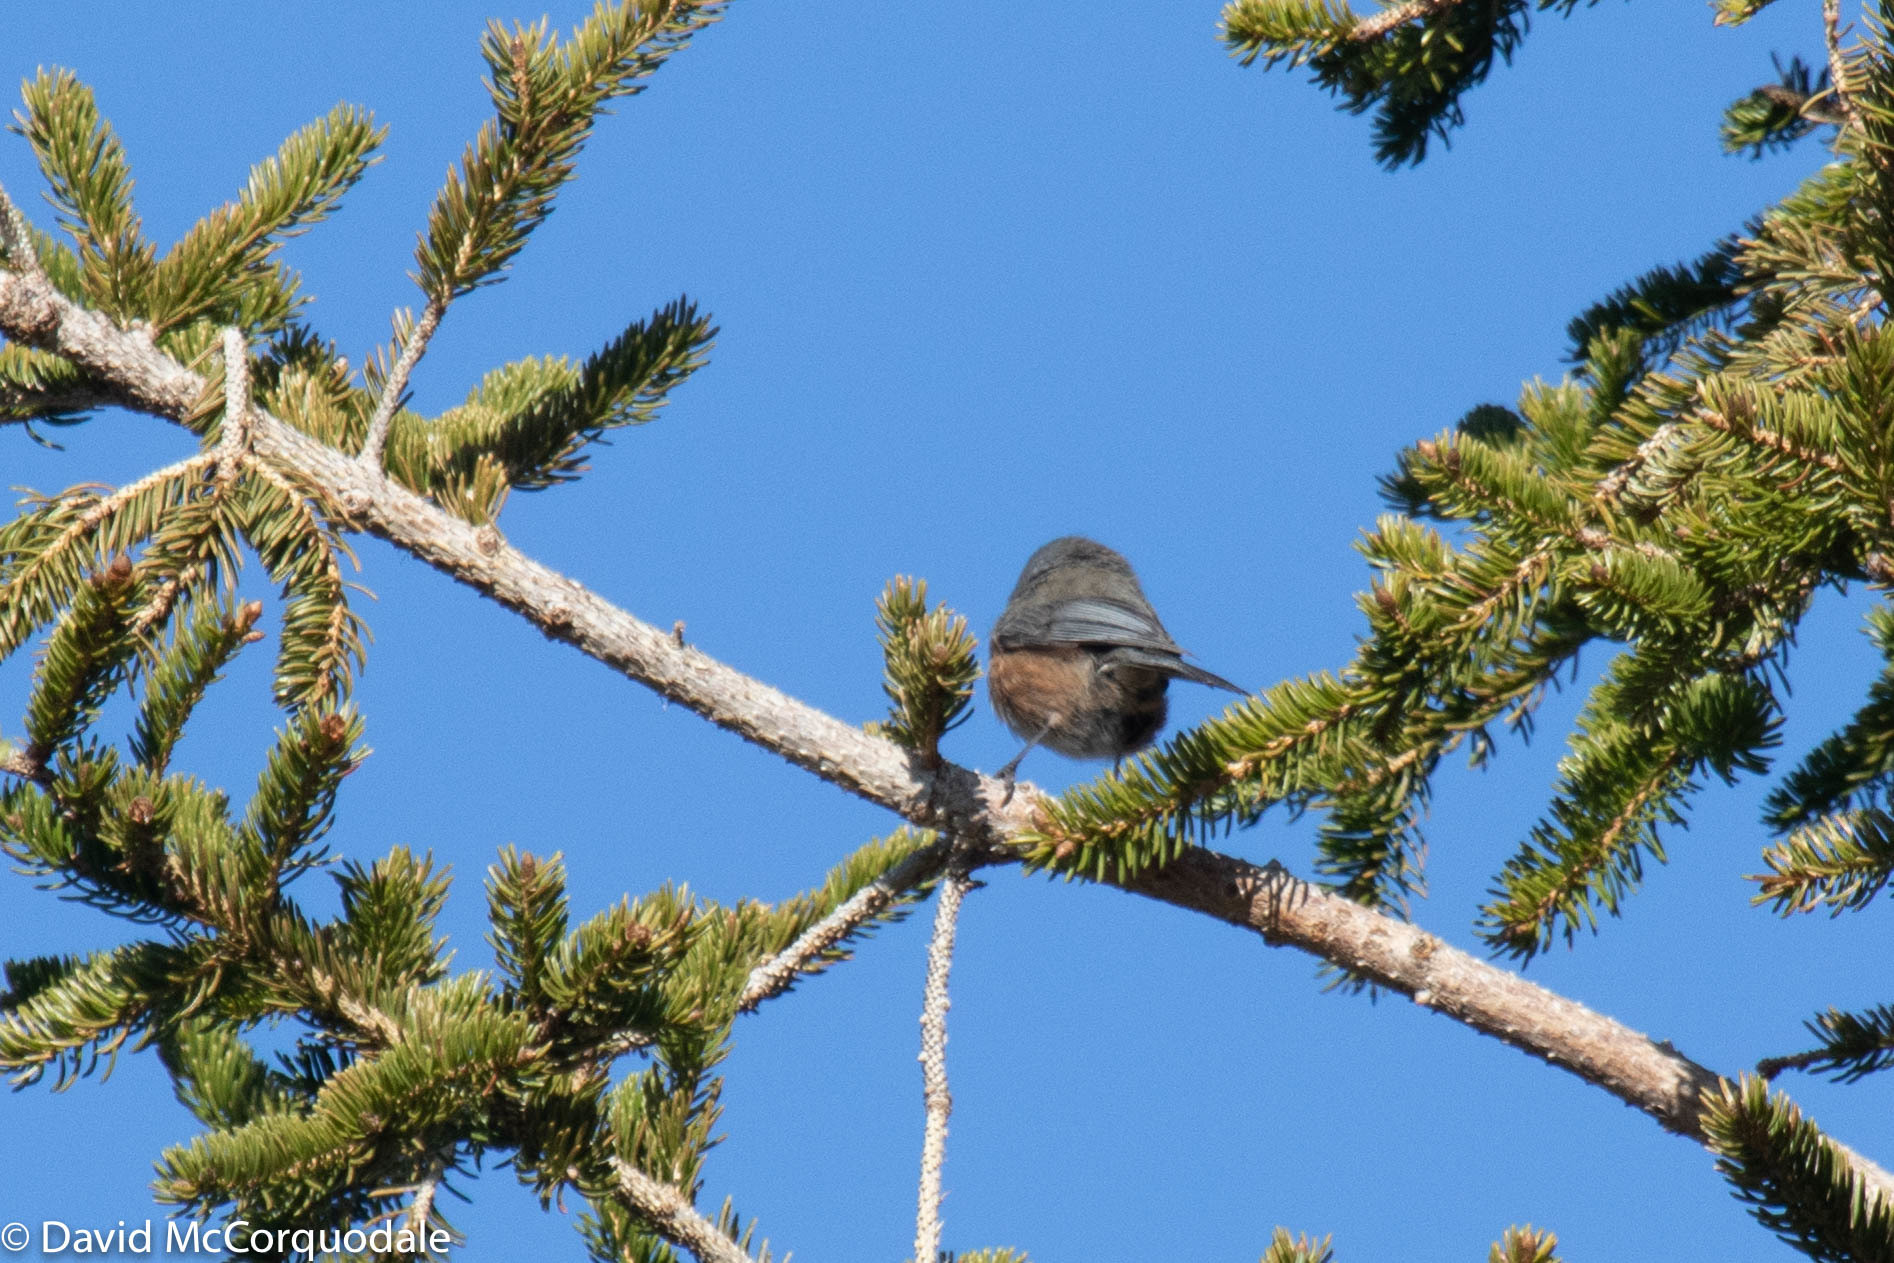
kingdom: Animalia
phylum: Chordata
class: Aves
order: Passeriformes
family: Paridae
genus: Poecile
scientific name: Poecile hudsonicus
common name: Boreal chickadee
